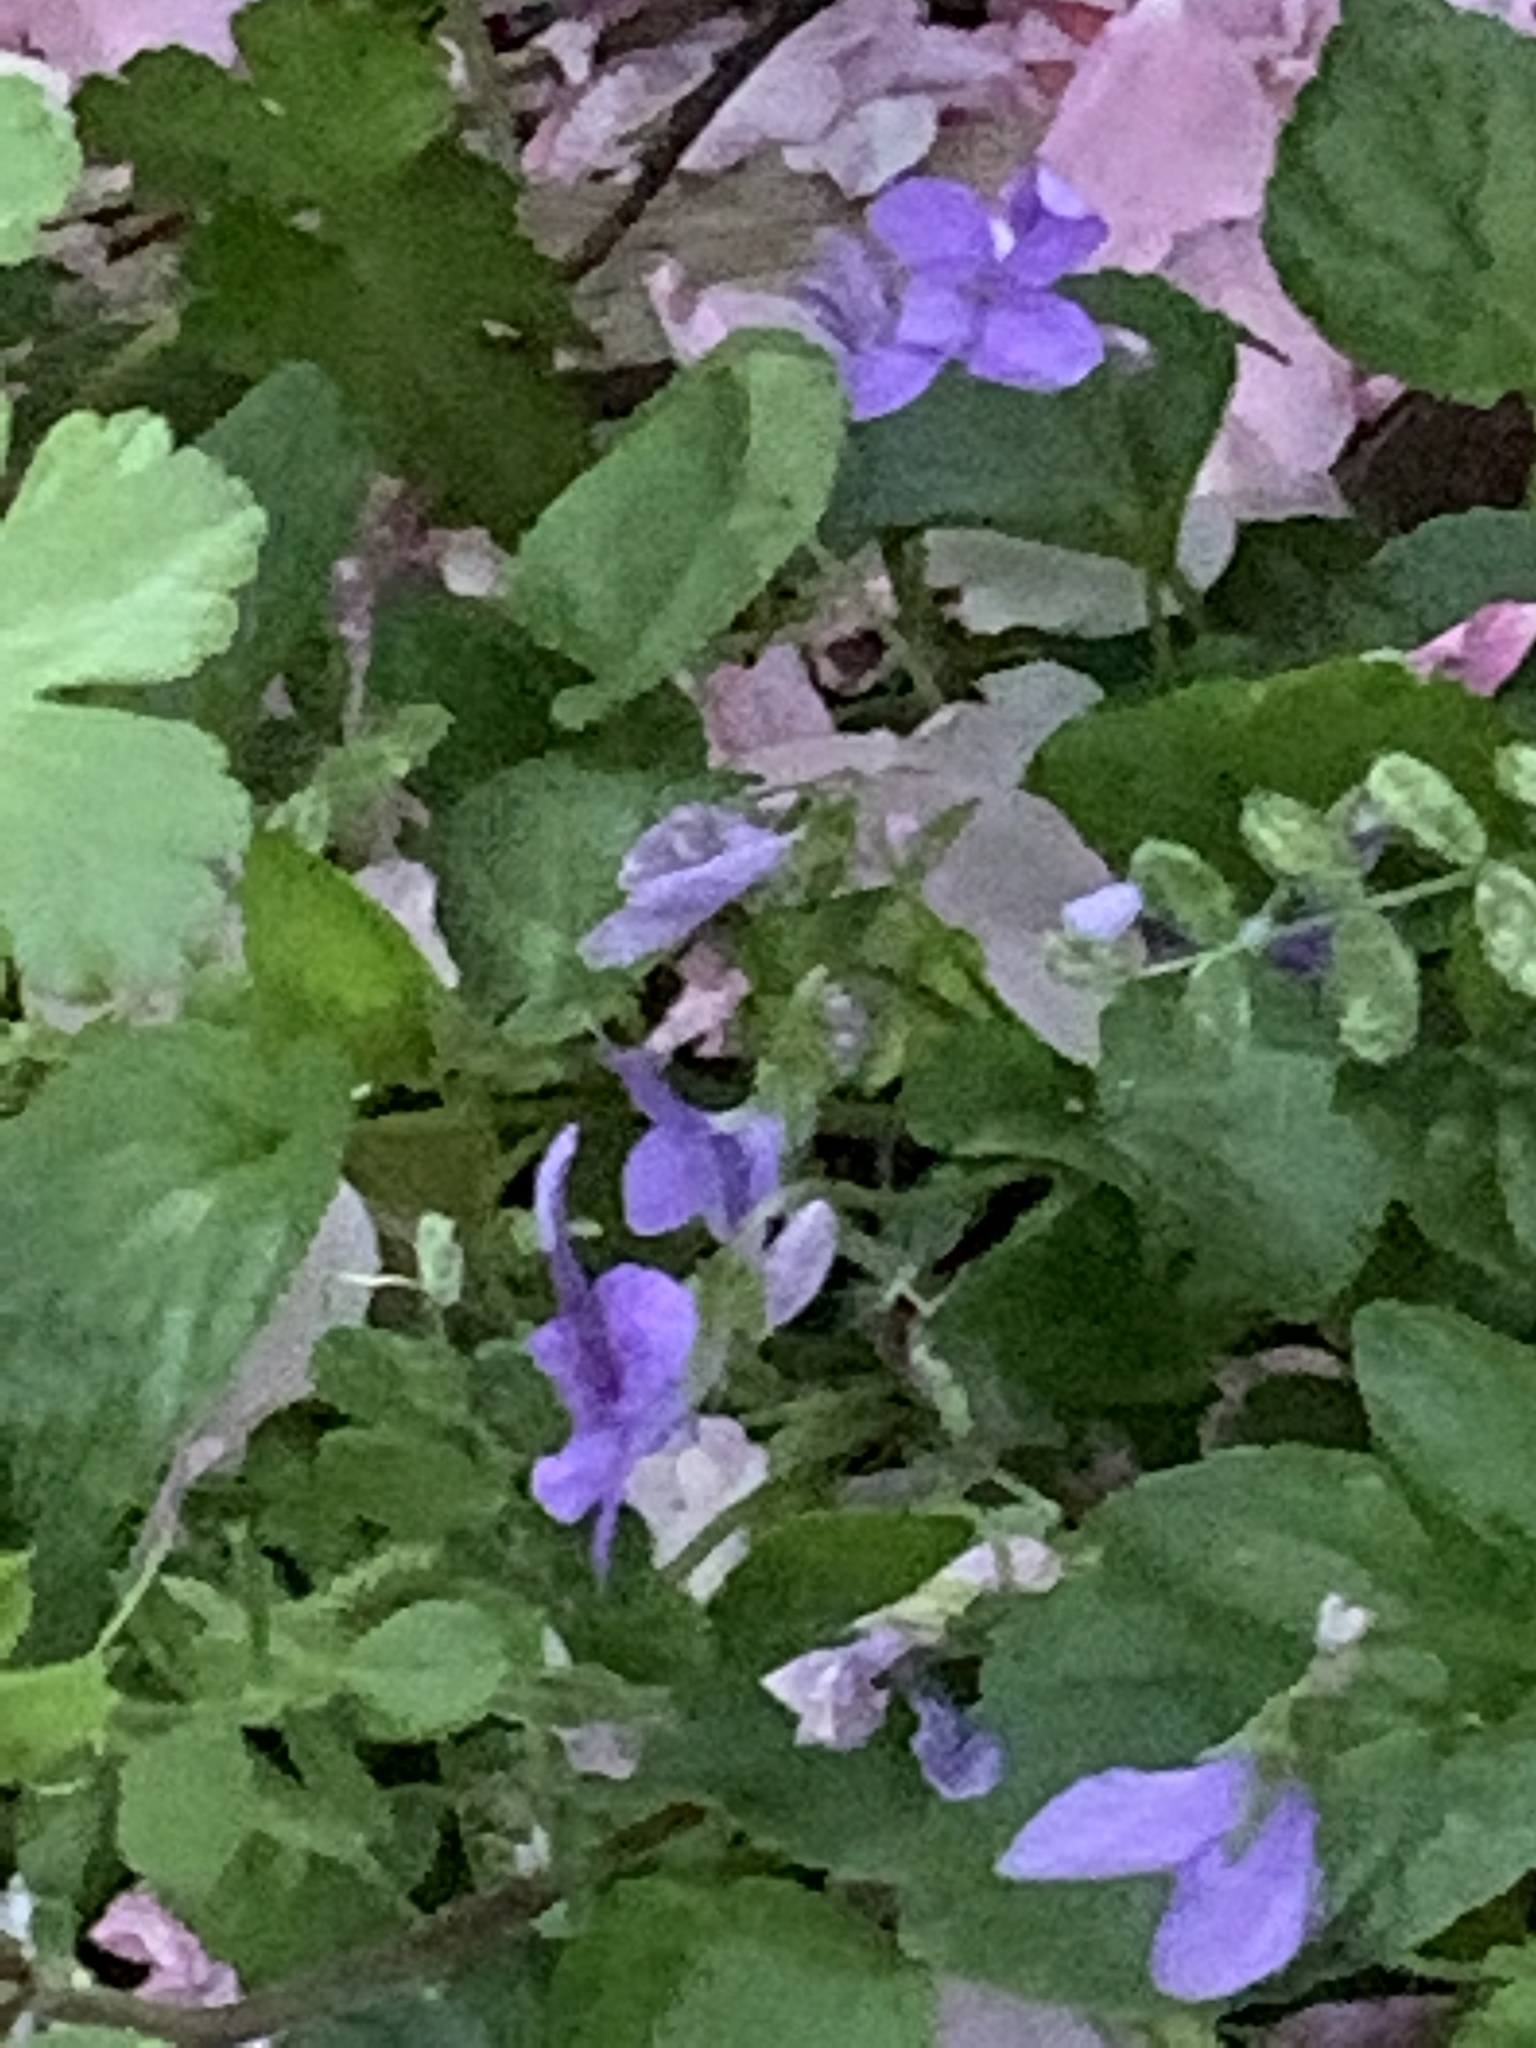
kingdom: Plantae
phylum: Tracheophyta
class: Magnoliopsida
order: Malpighiales
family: Violaceae
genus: Viola
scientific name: Viola riviniana
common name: Common dog-violet
